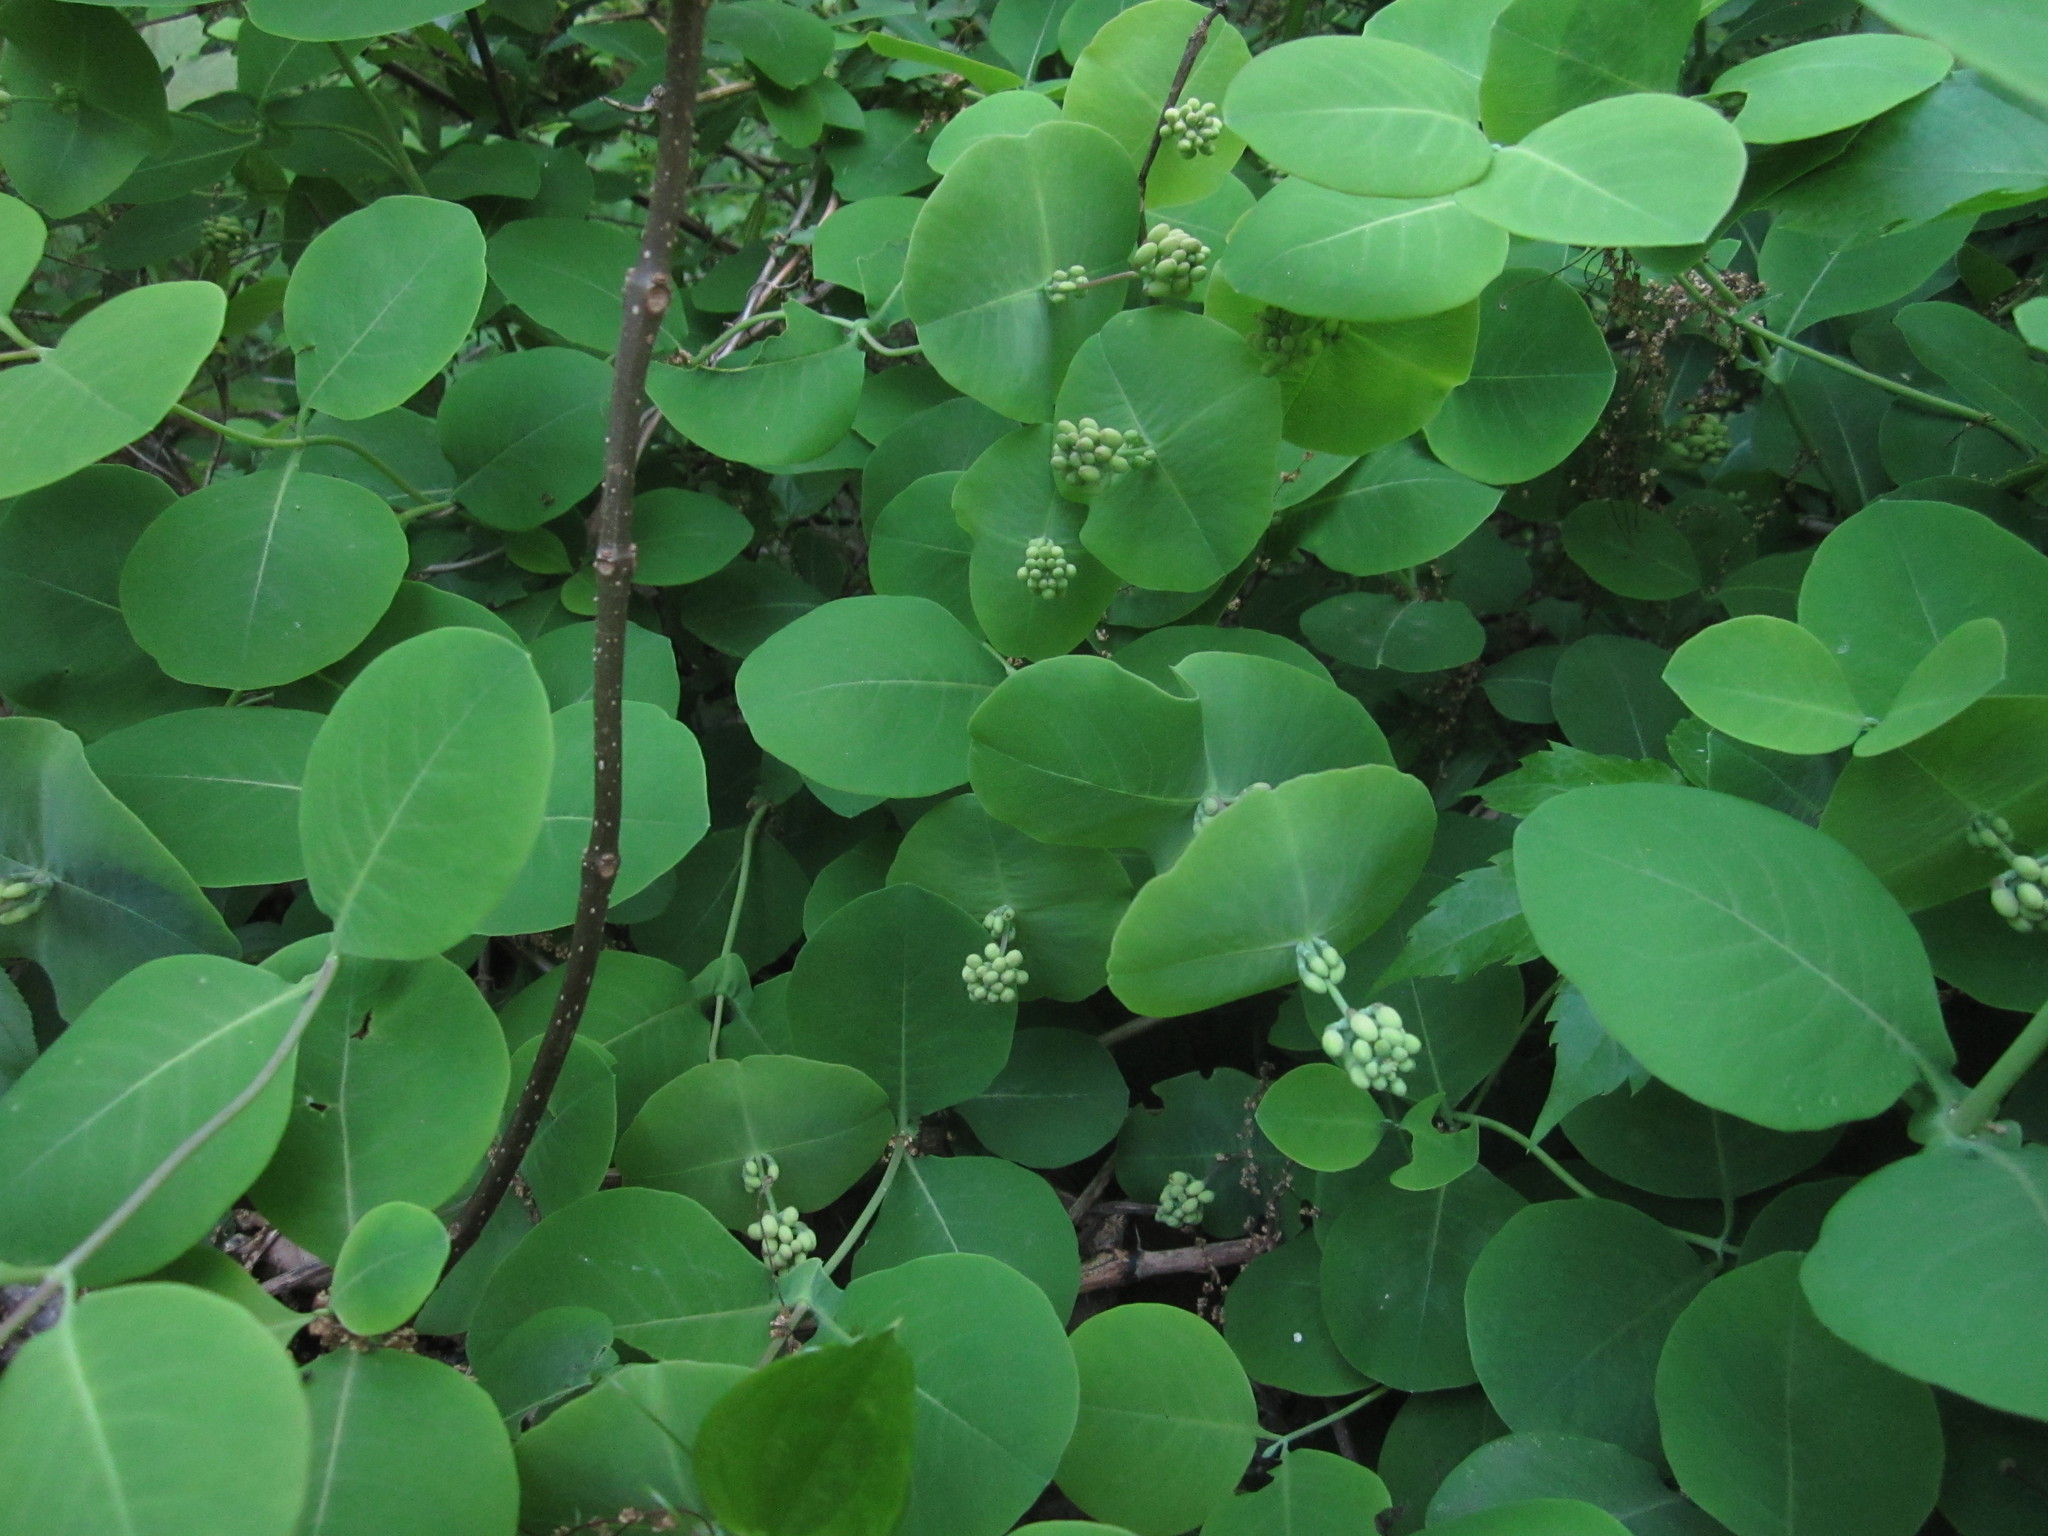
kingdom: Plantae
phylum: Tracheophyta
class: Magnoliopsida
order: Dipsacales
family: Caprifoliaceae
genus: Lonicera
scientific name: Lonicera reticulata
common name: Grape honeysuckle
